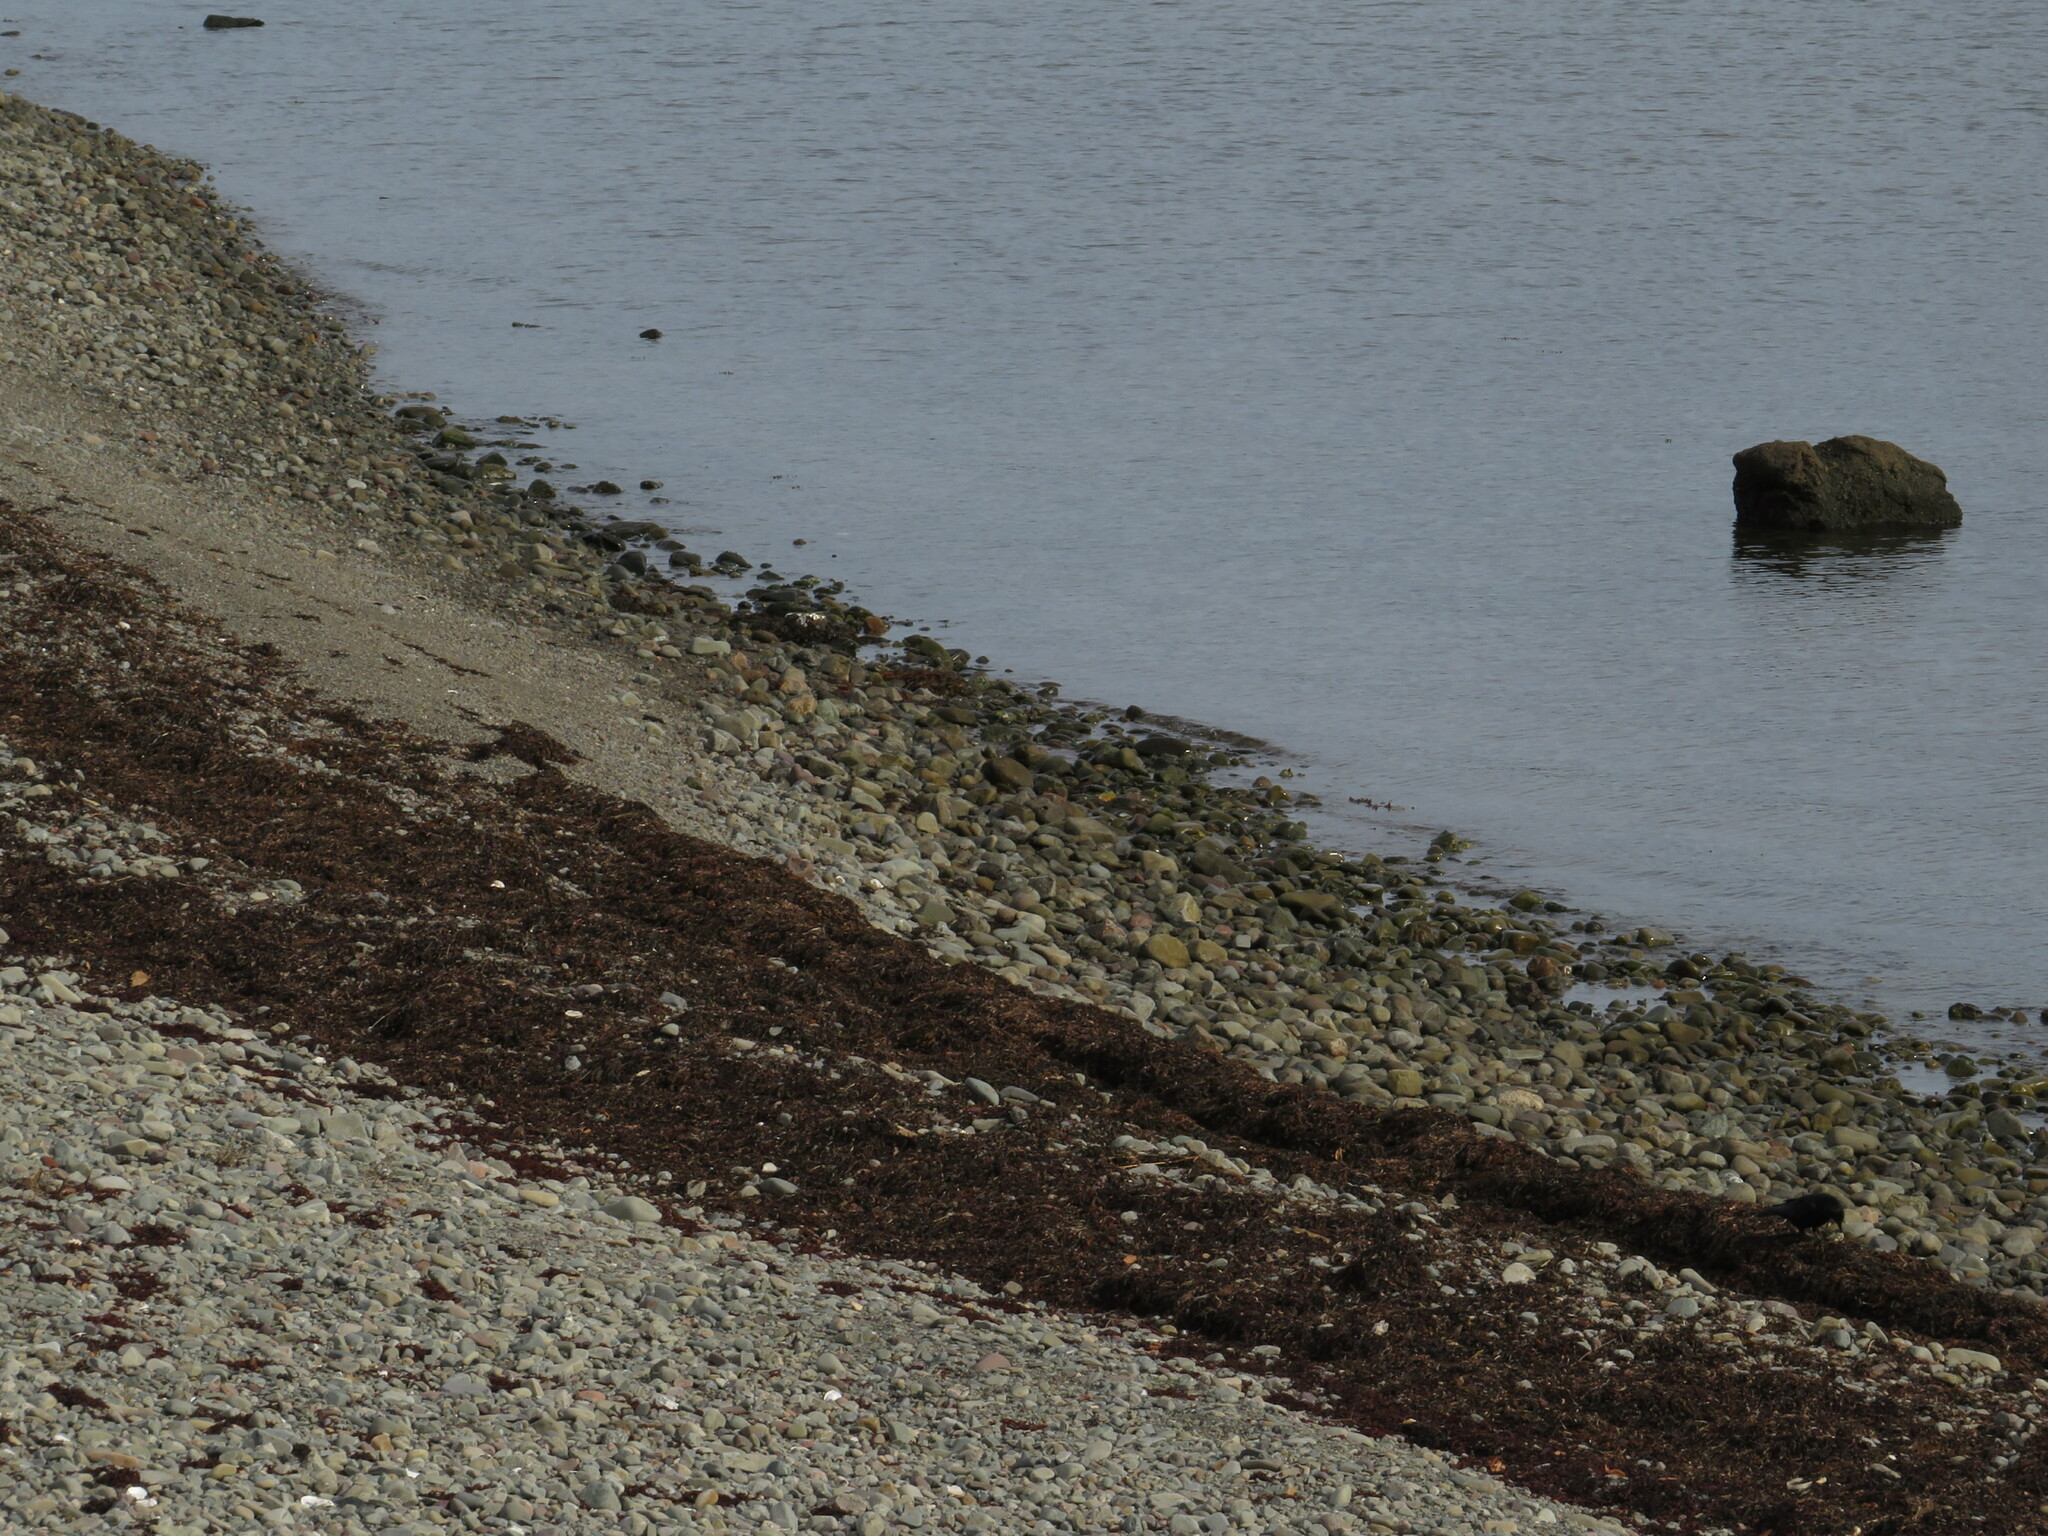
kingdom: Animalia
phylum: Chordata
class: Aves
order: Passeriformes
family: Corvidae
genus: Corvus
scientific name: Corvus brachyrhynchos
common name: American crow
